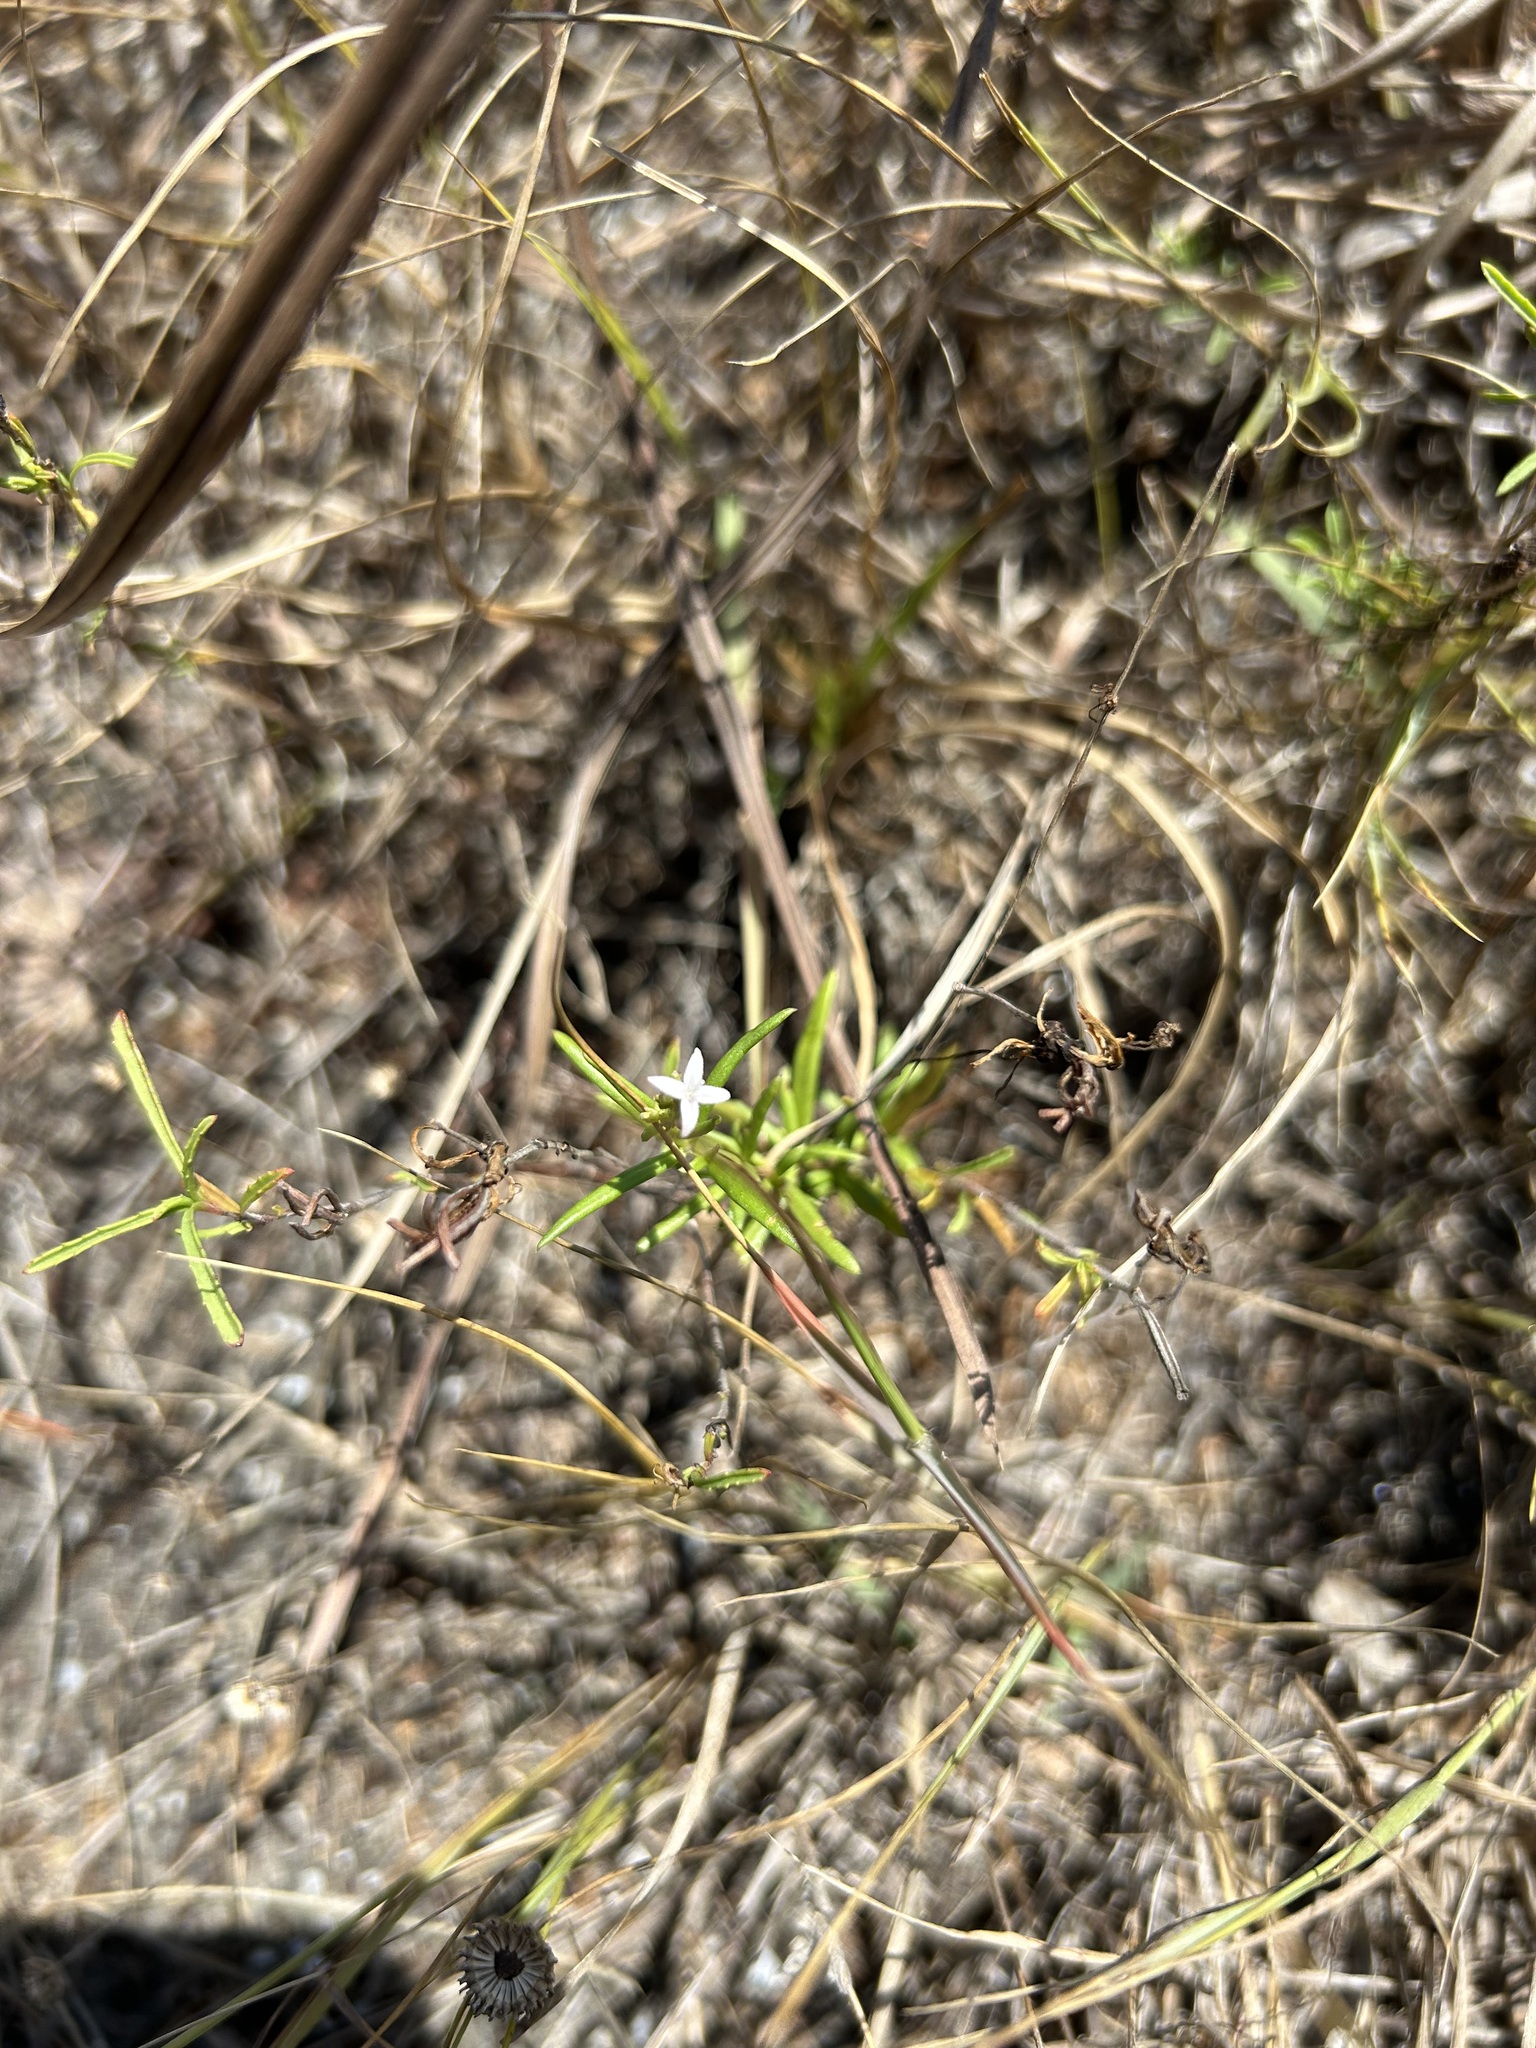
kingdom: Plantae
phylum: Tracheophyta
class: Magnoliopsida
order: Gentianales
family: Rubiaceae
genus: Stenaria
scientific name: Stenaria nigricans
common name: Diamondflowers
